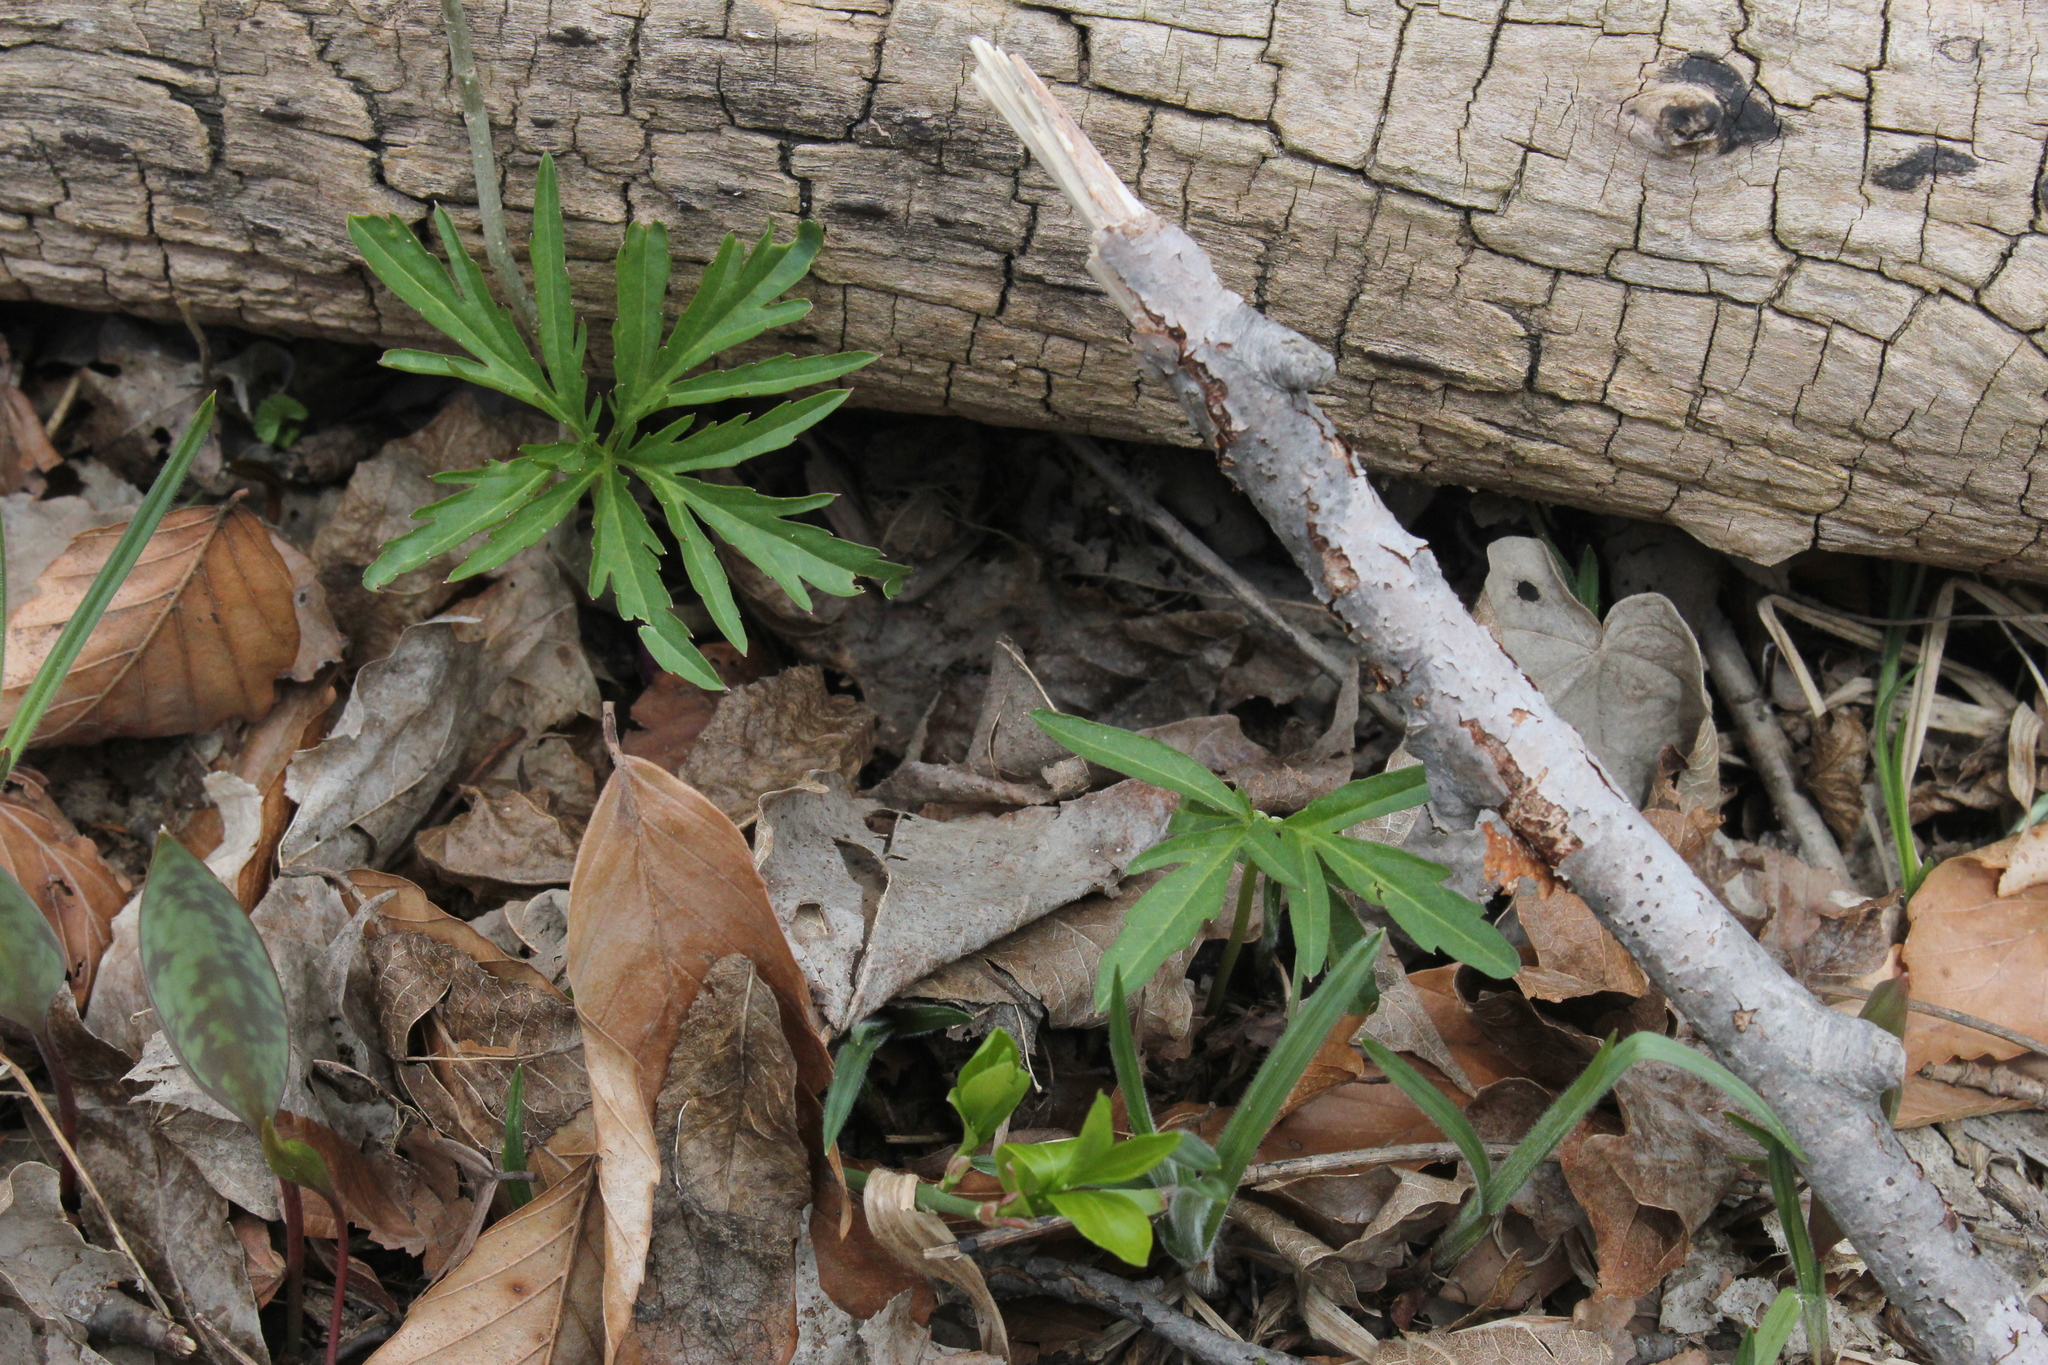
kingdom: Plantae
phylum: Tracheophyta
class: Magnoliopsida
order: Brassicales
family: Brassicaceae
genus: Cardamine
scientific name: Cardamine concatenata
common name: Cut-leaf toothcup
